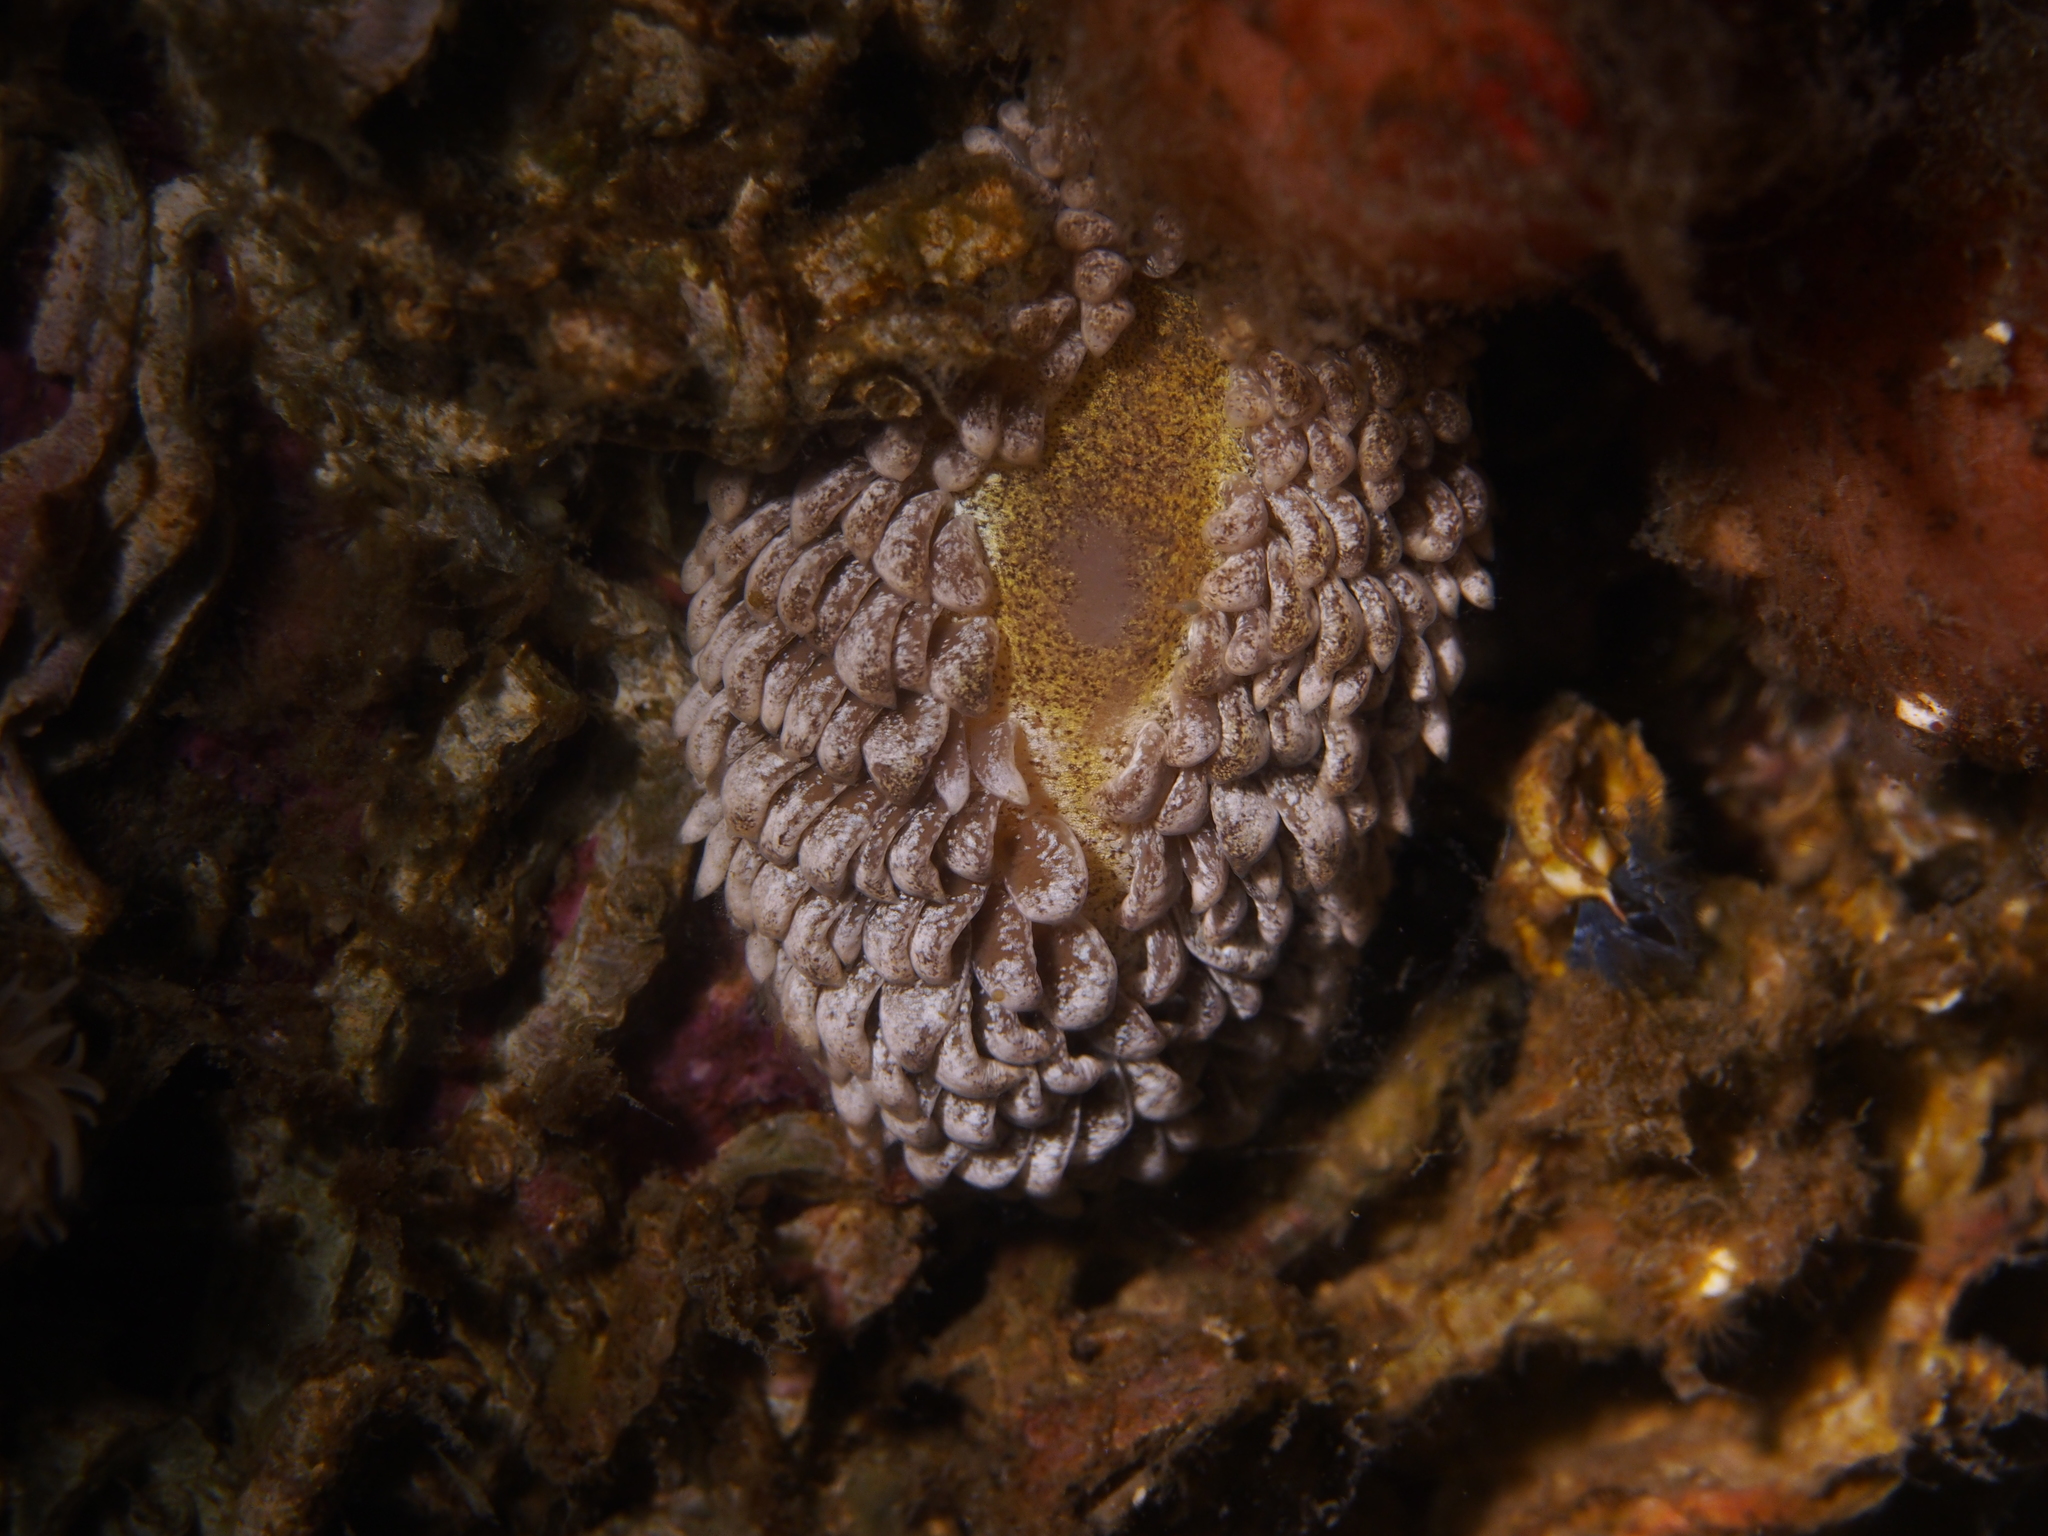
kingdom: Animalia
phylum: Mollusca
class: Gastropoda
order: Nudibranchia
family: Aeolidiidae
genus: Aeolidia
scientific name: Aeolidia papillosa
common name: Common grey sea slug
